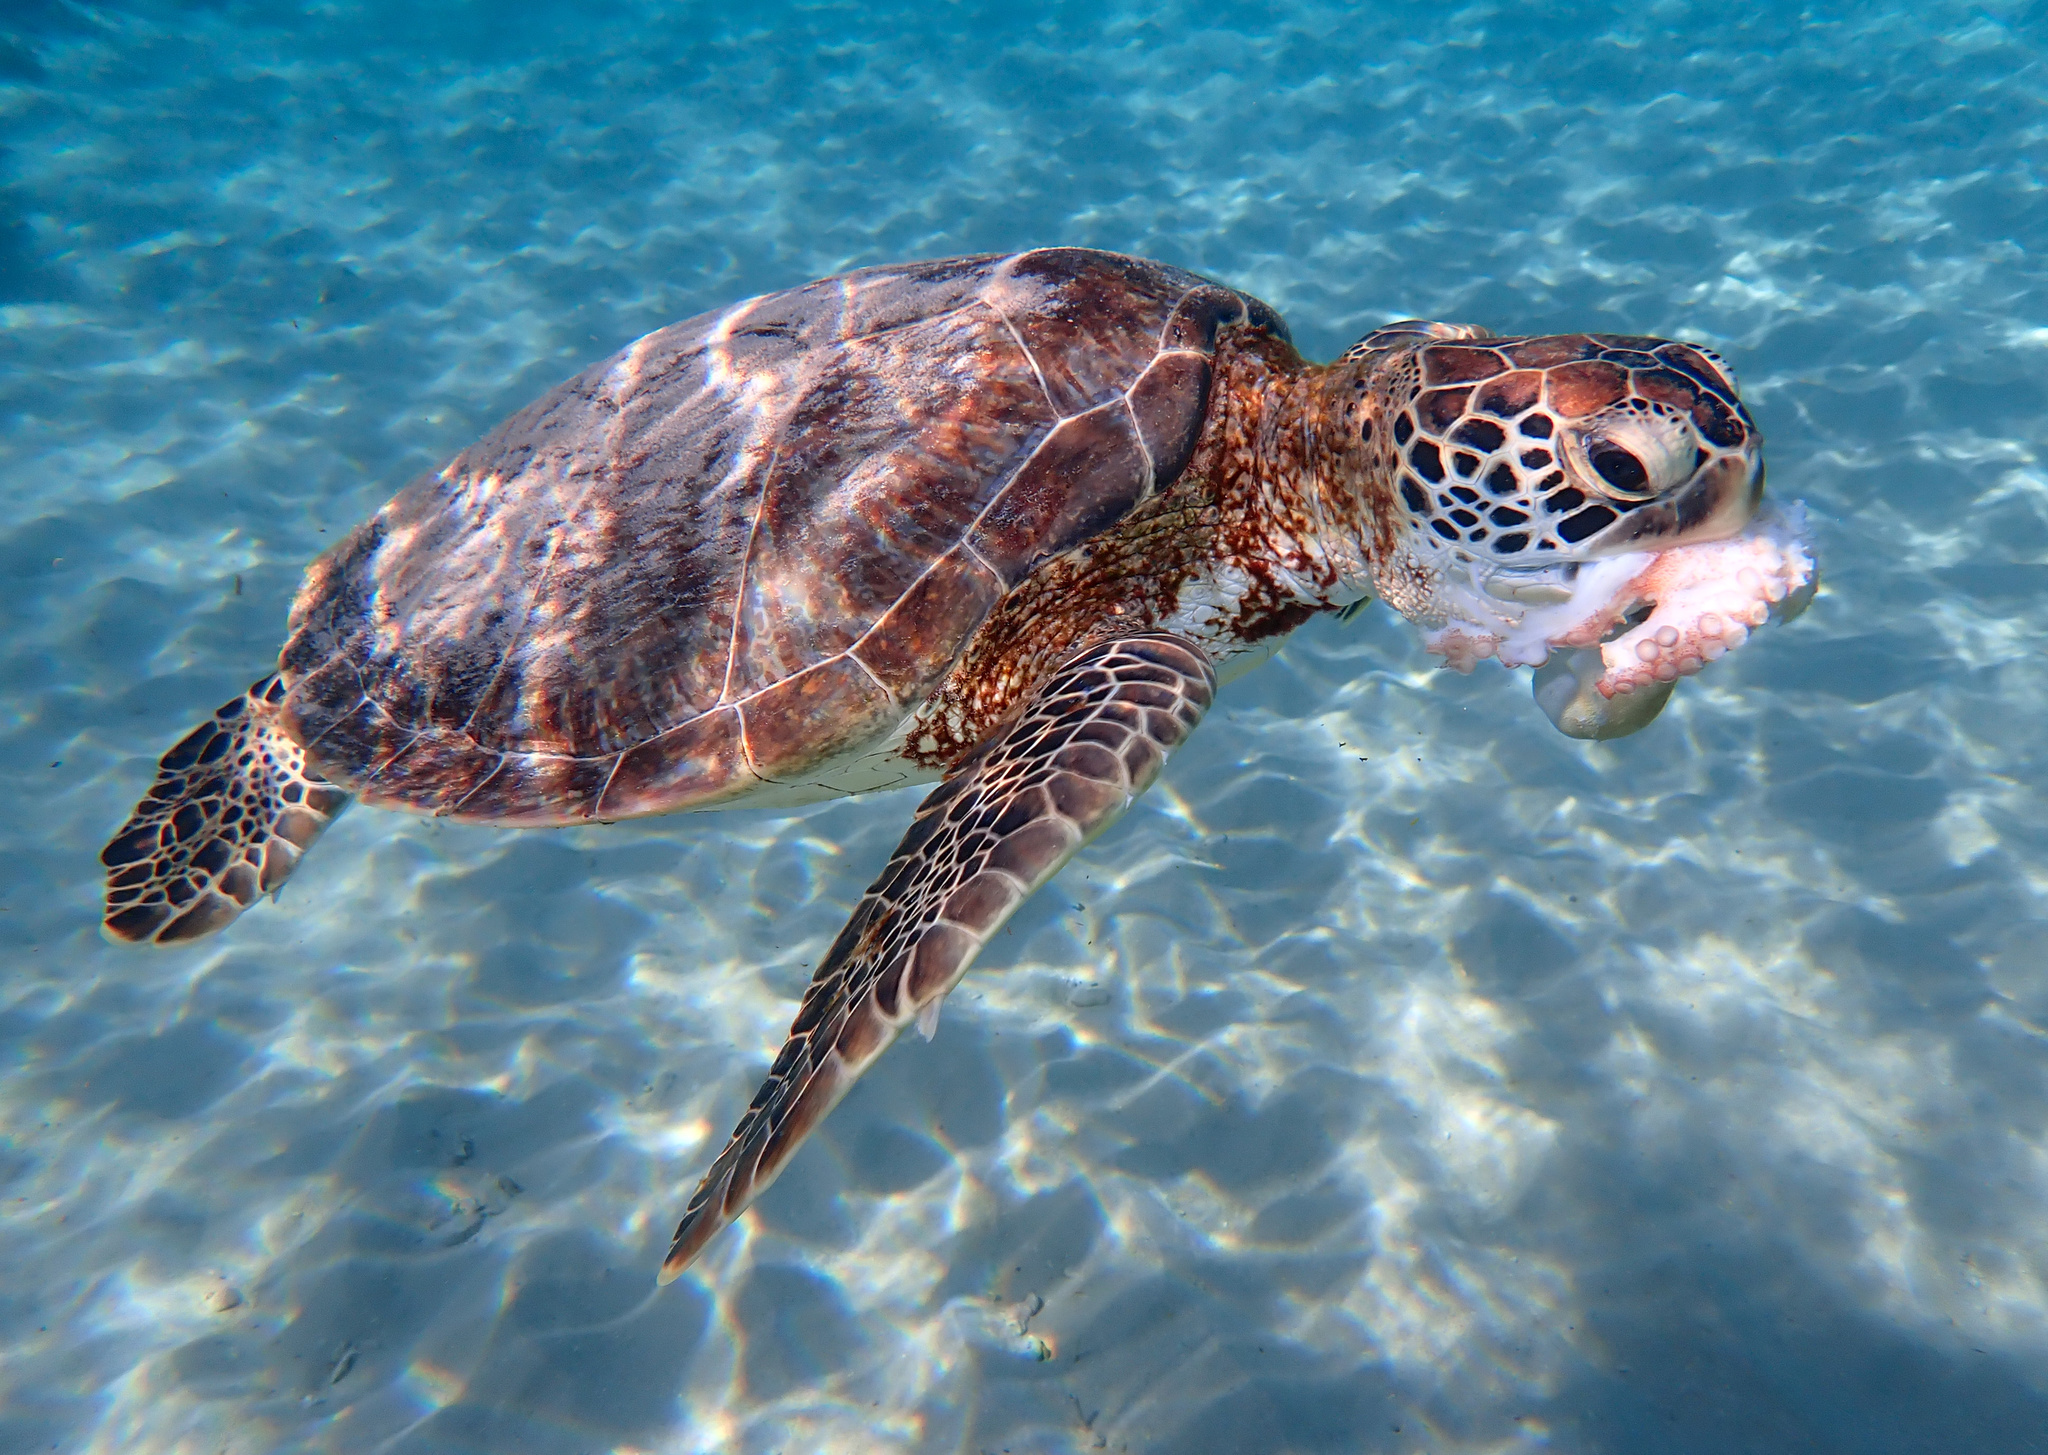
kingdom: Animalia
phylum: Chordata
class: Testudines
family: Cheloniidae
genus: Chelonia
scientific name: Chelonia mydas
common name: Green turtle
